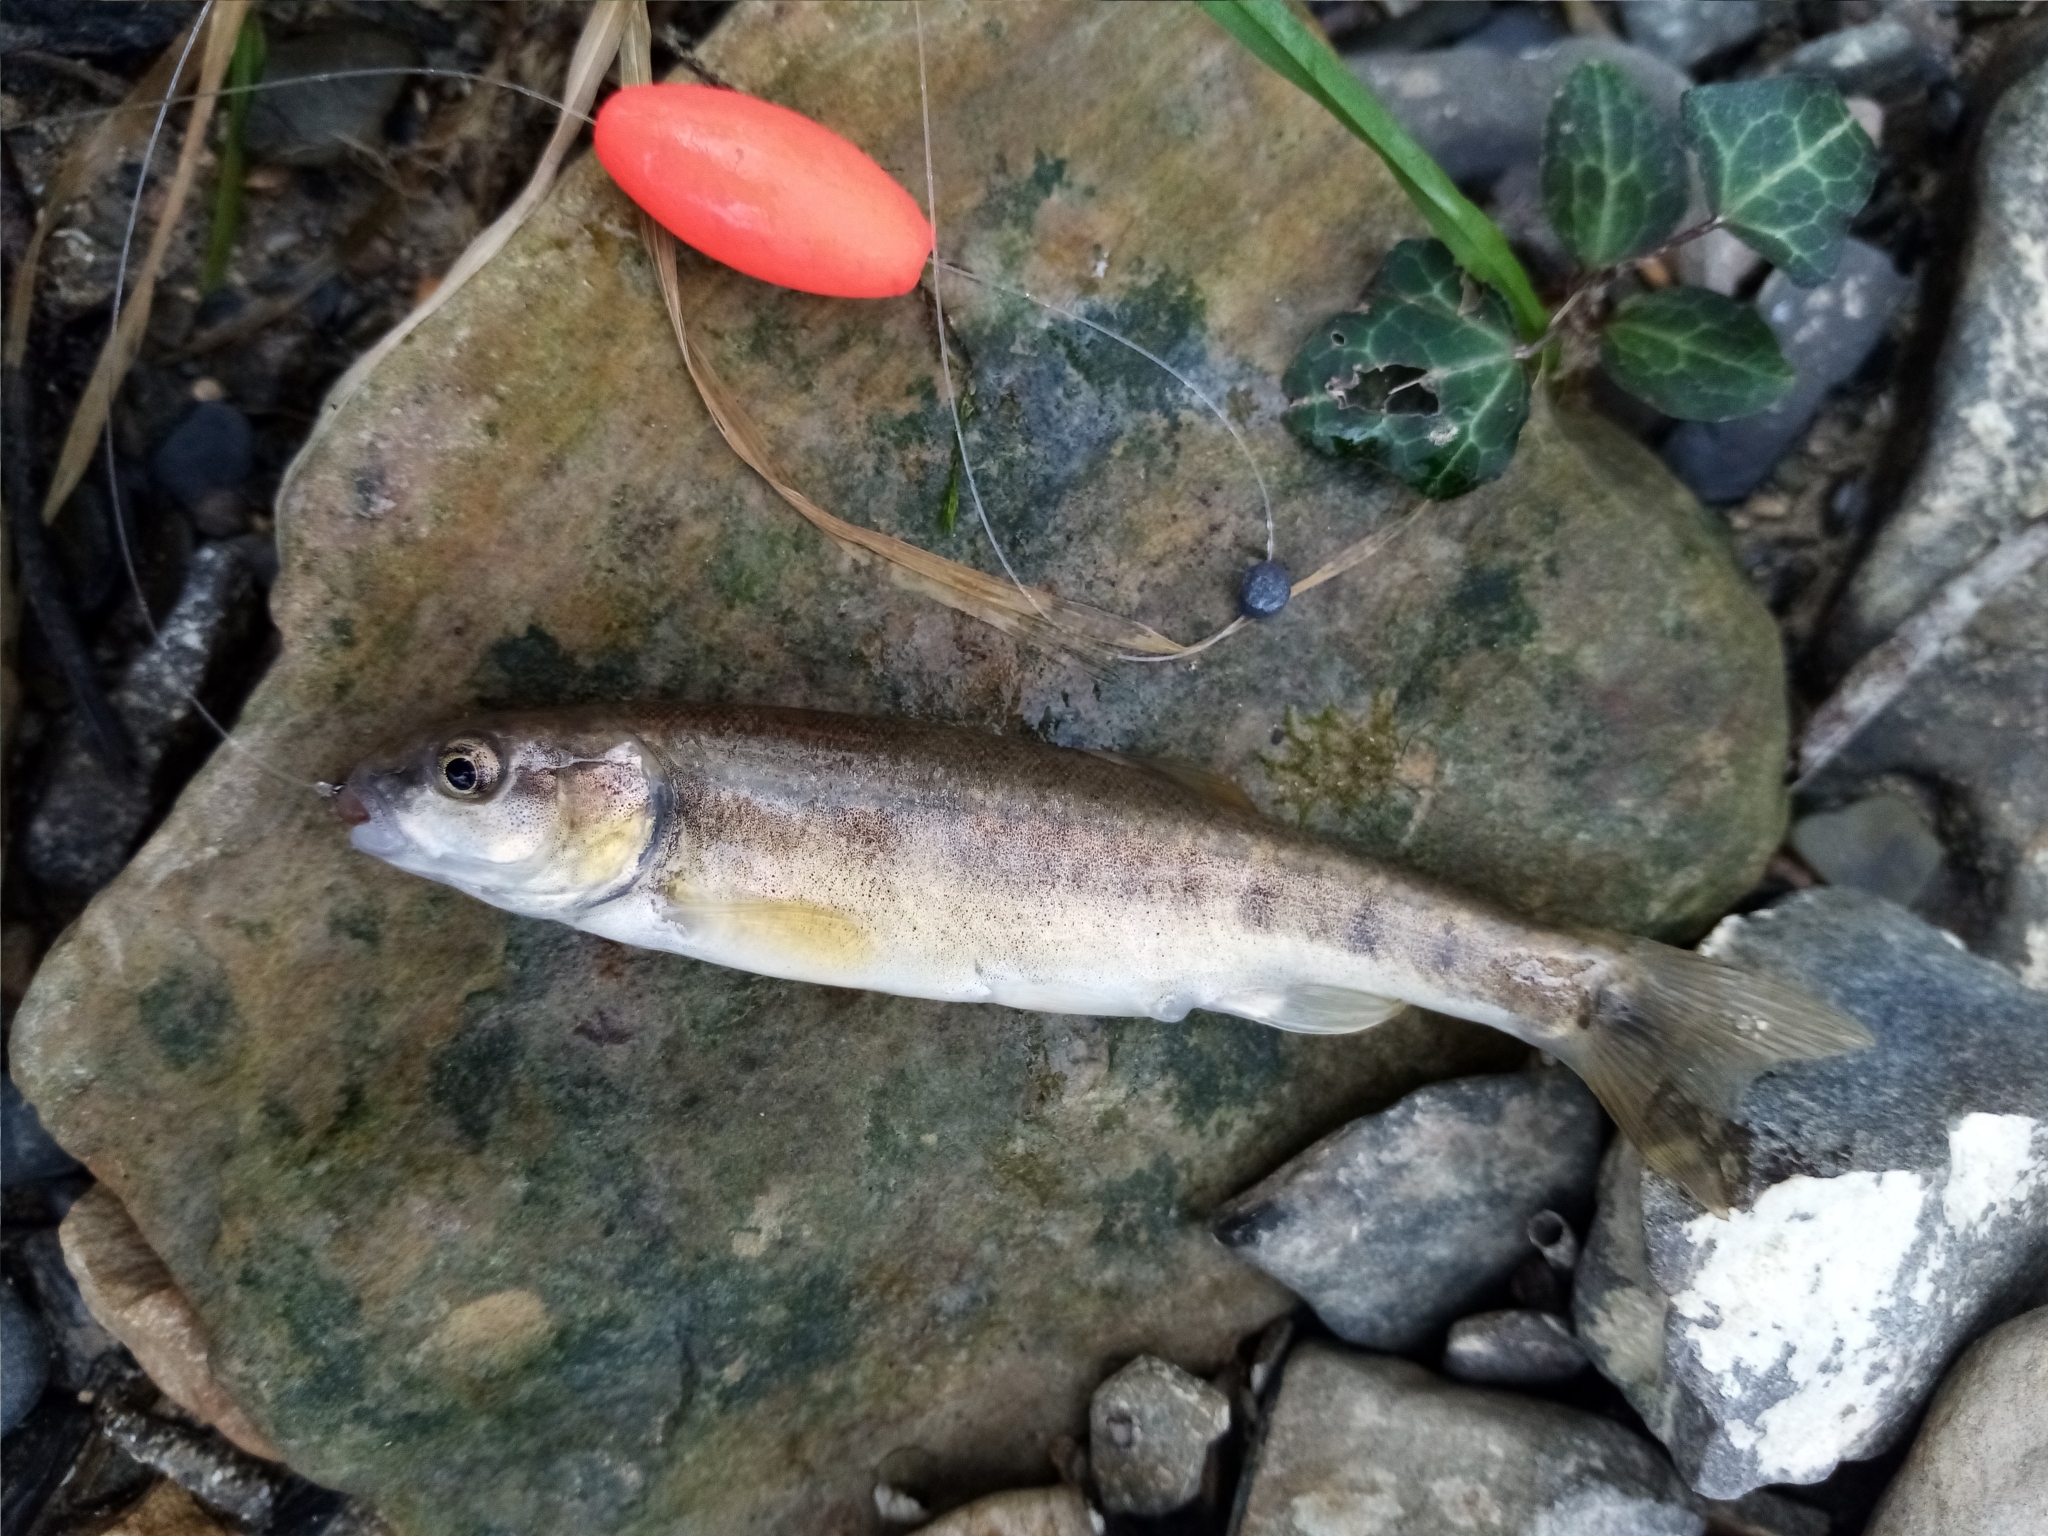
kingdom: Animalia
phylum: Chordata
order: Cypriniformes
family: Cyprinidae
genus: Phoxinus
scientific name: Phoxinus colchicus
